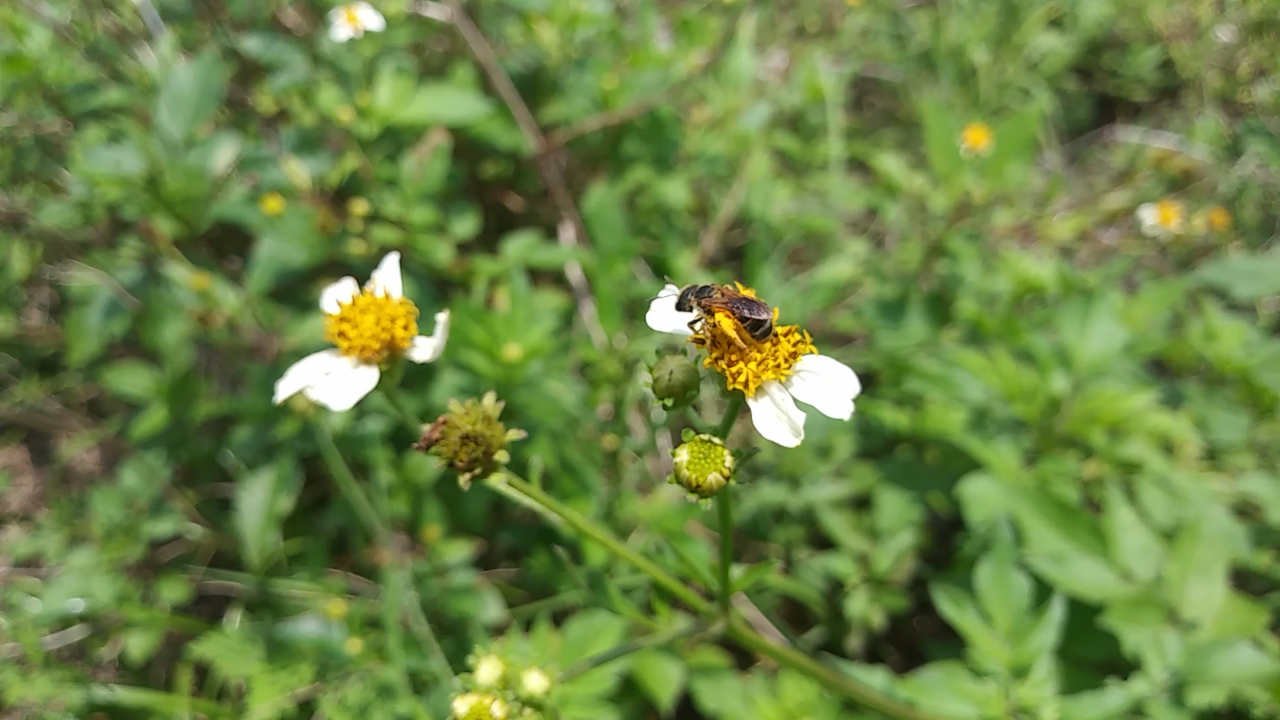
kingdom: Plantae
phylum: Tracheophyta
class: Magnoliopsida
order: Asterales
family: Asteraceae
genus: Bidens
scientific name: Bidens alba
